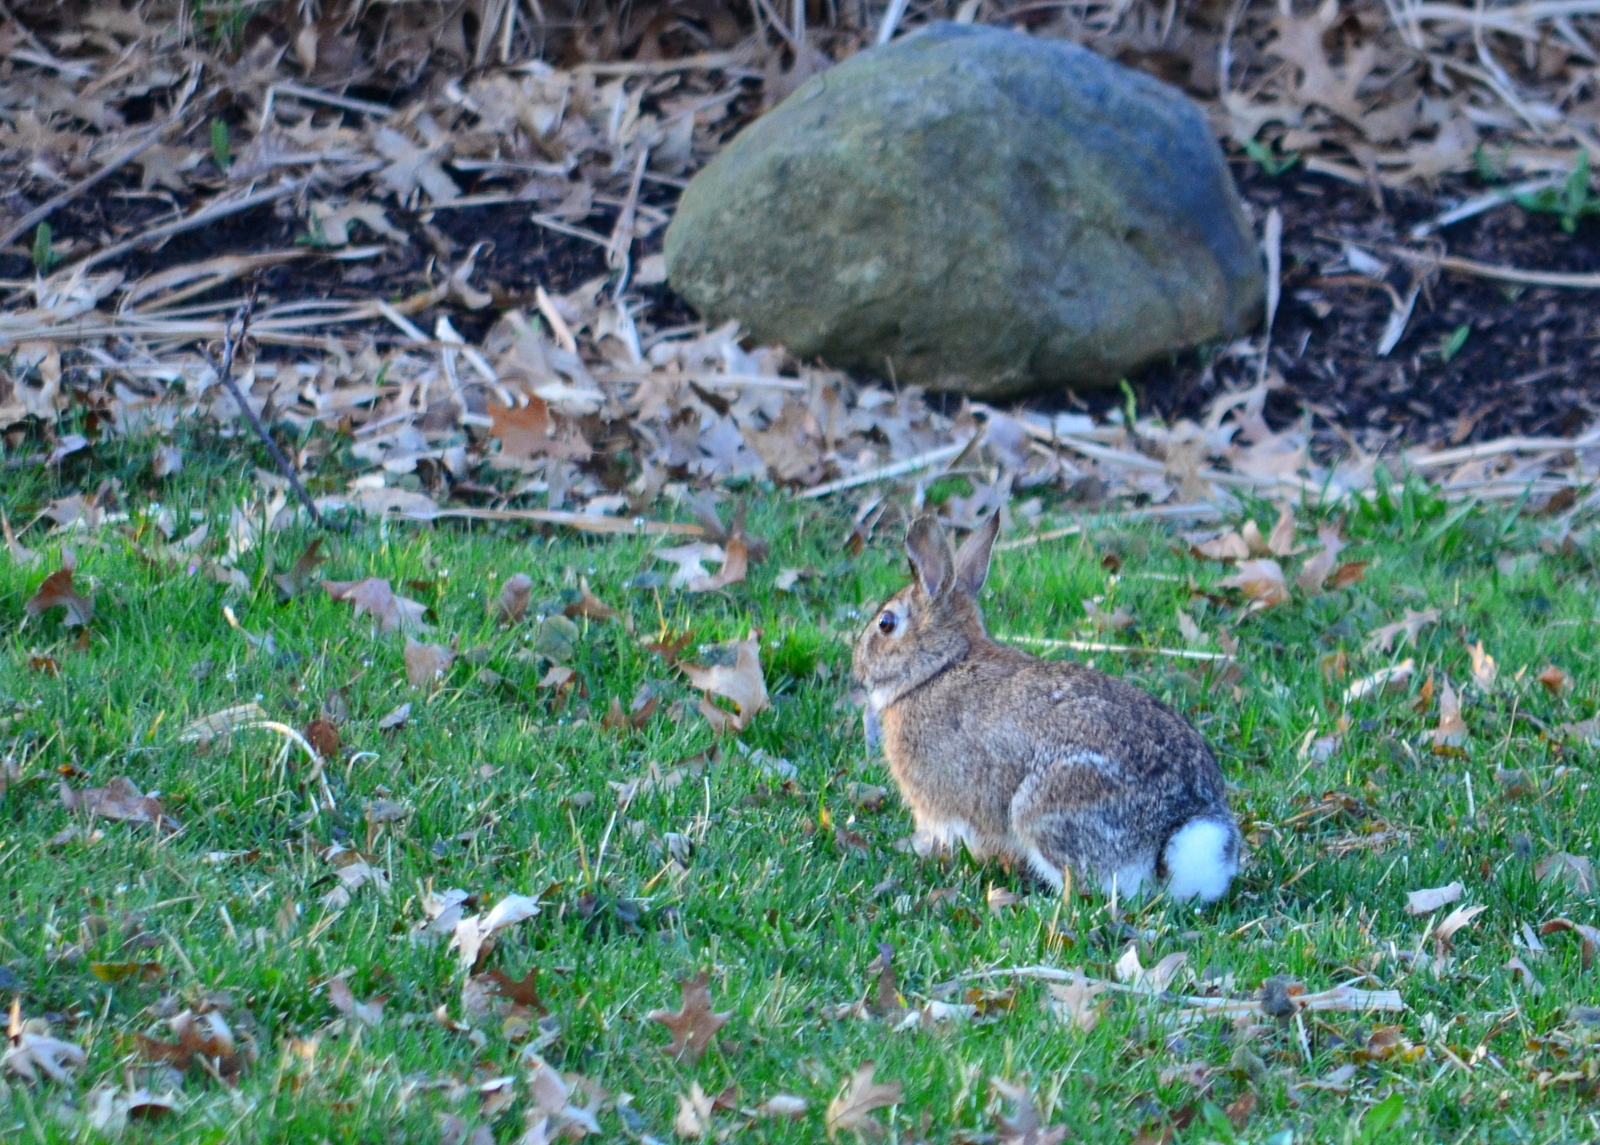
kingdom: Animalia
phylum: Chordata
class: Mammalia
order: Lagomorpha
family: Leporidae
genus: Sylvilagus
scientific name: Sylvilagus floridanus
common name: Eastern cottontail
